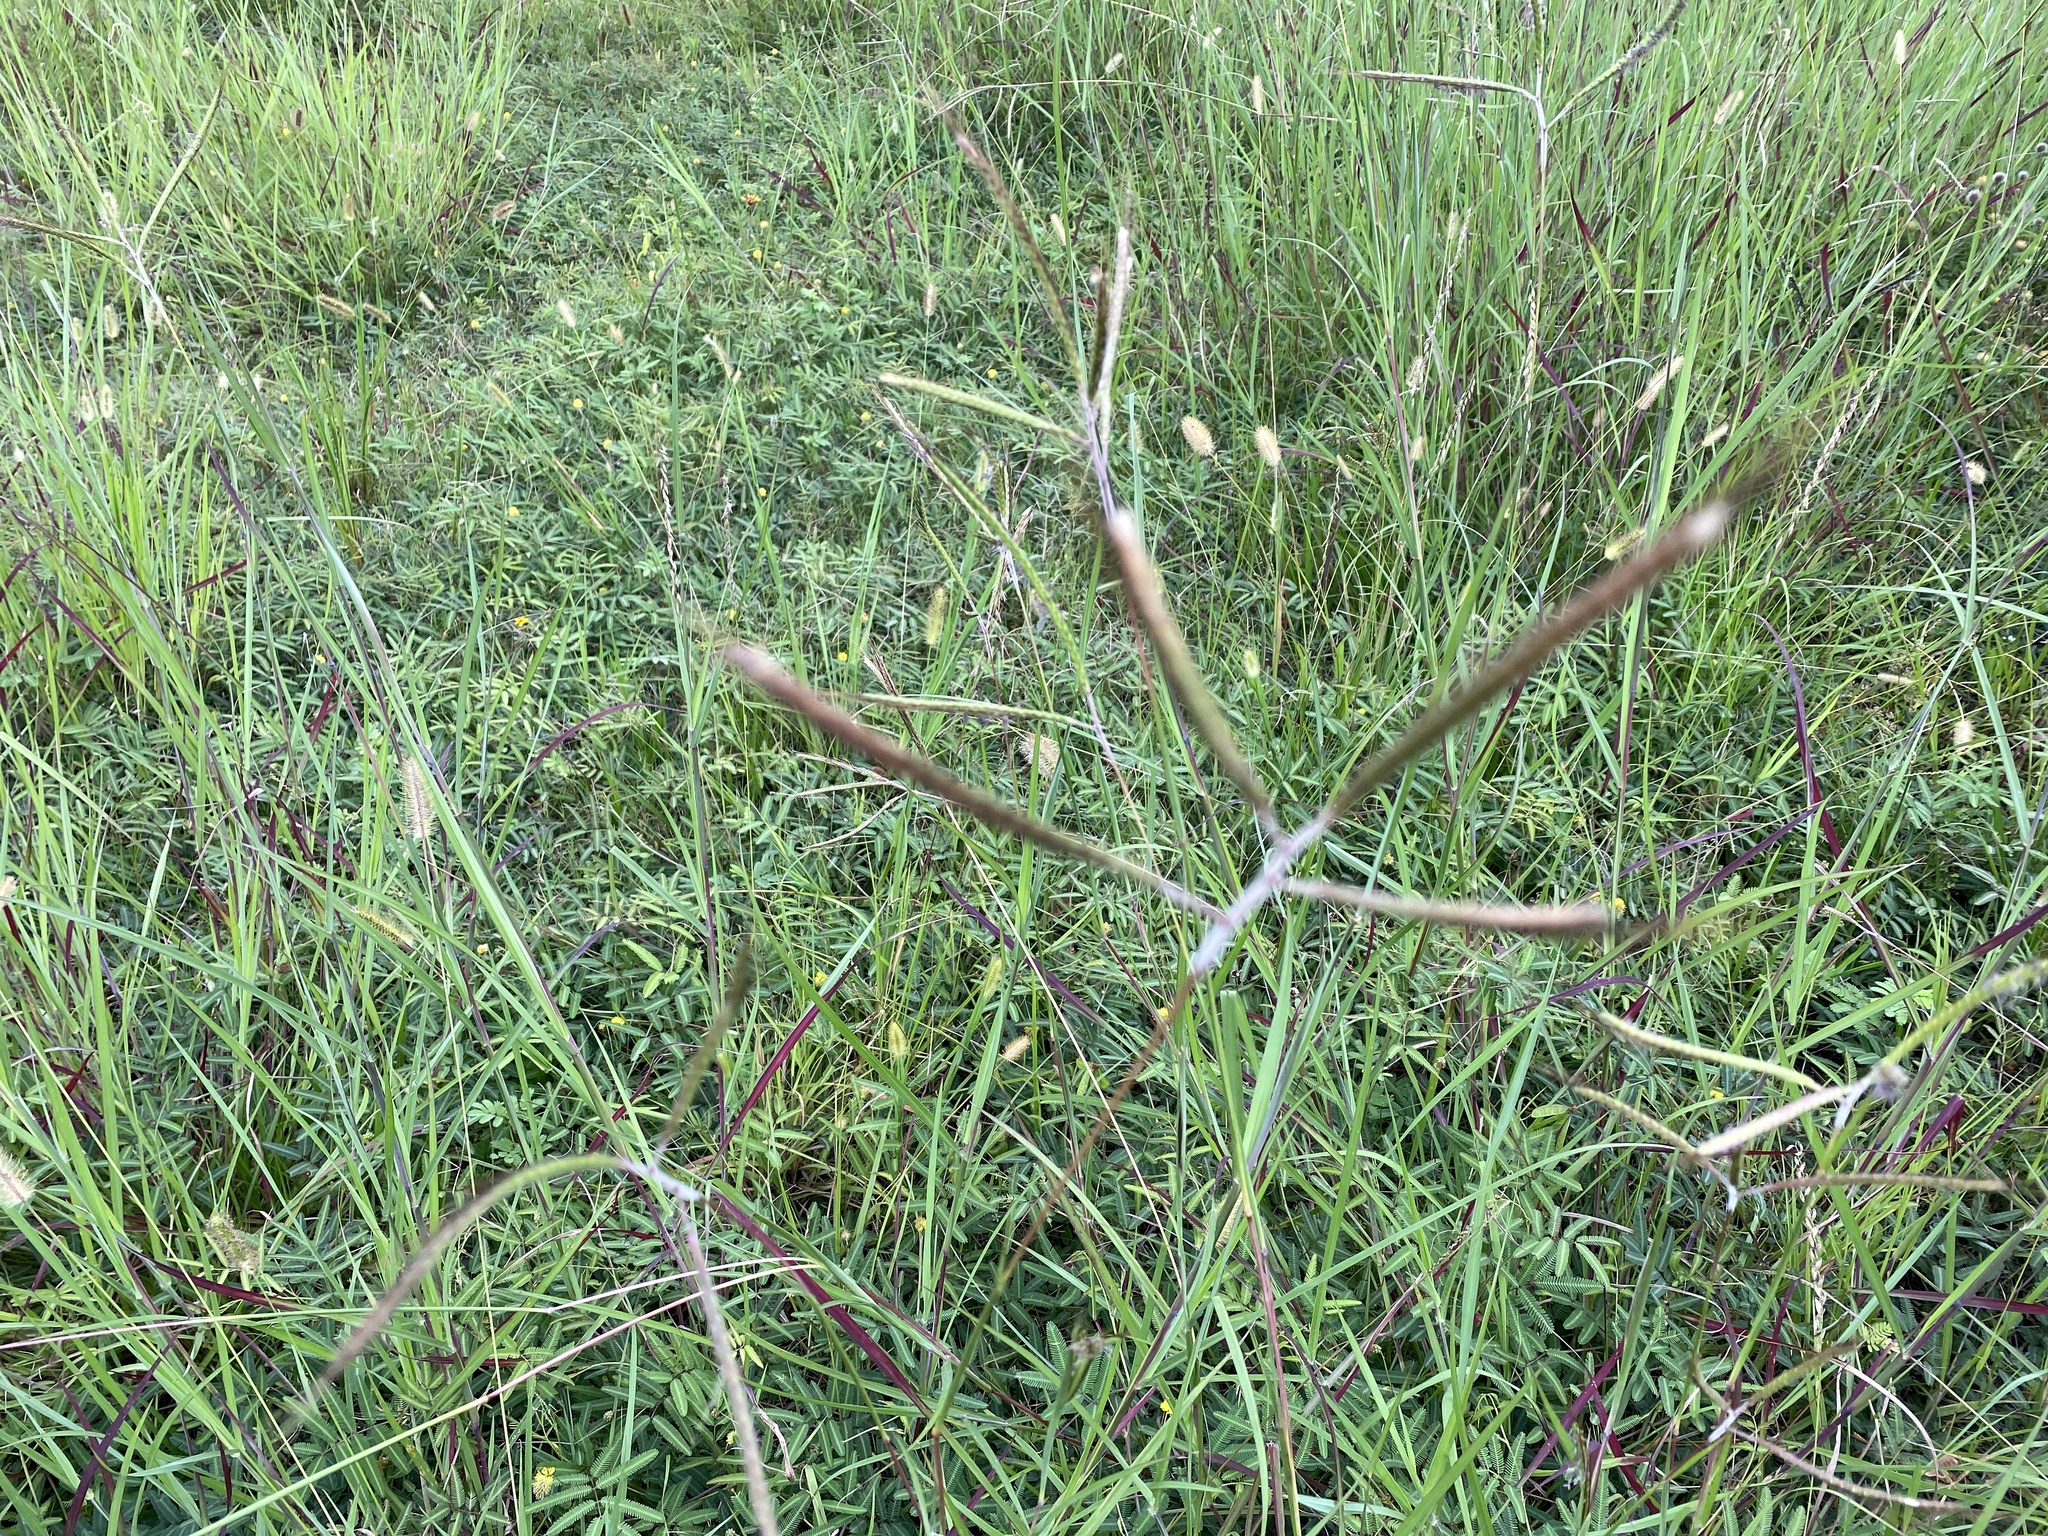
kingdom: Plantae
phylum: Tracheophyta
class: Liliopsida
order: Poales
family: Poaceae
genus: Dichanthium
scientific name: Dichanthium aristatum
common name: Angleton bluestem
